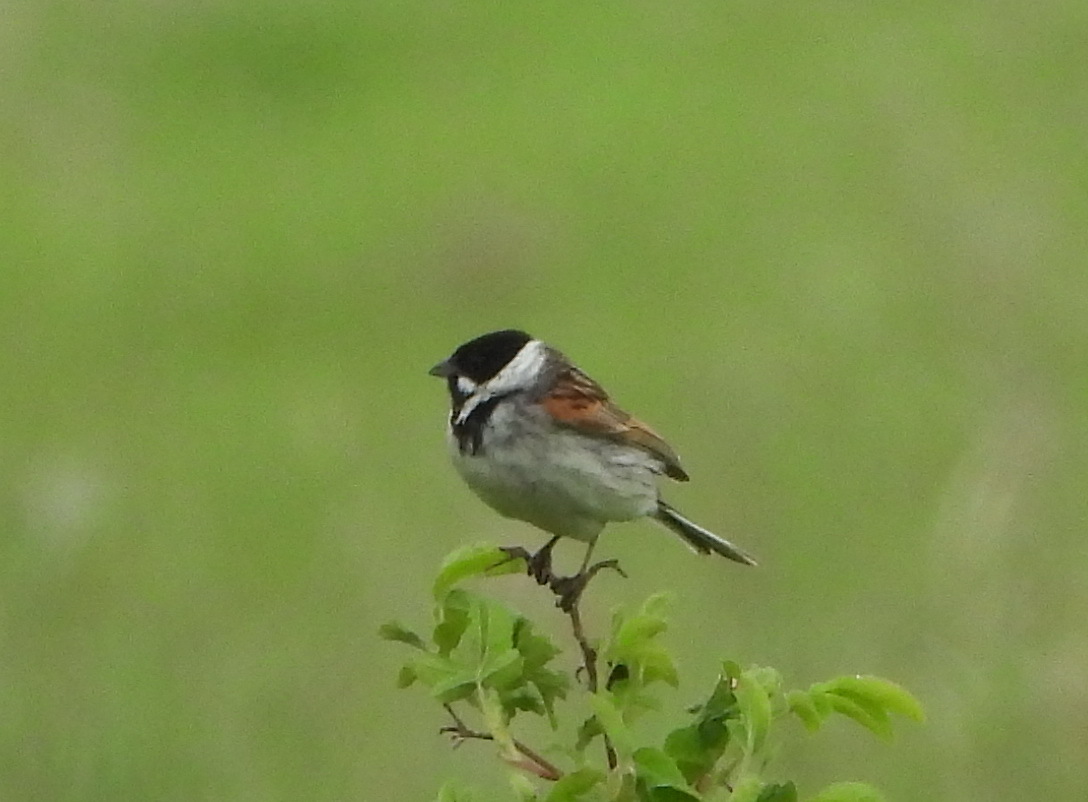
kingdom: Animalia
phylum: Chordata
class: Aves
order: Passeriformes
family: Emberizidae
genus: Emberiza
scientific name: Emberiza schoeniclus
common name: Reed bunting
